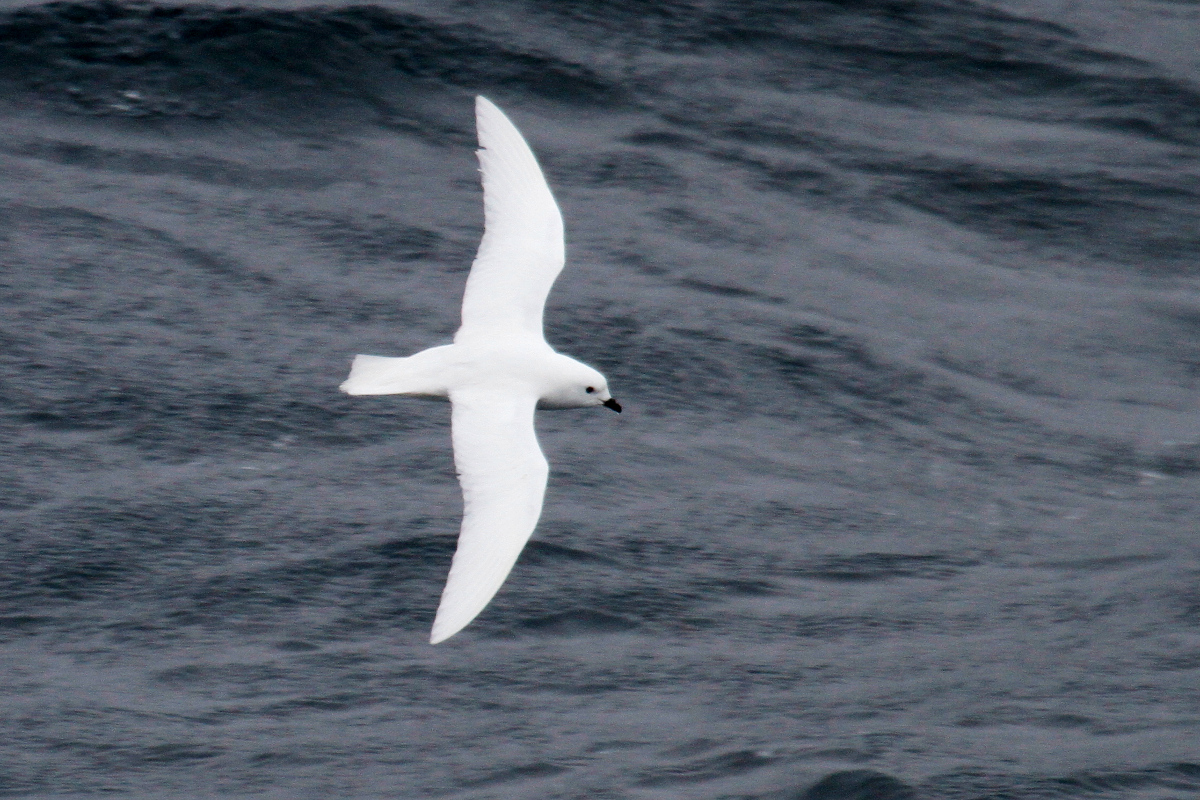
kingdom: Animalia
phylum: Chordata
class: Aves
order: Procellariiformes
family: Procellariidae
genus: Pagodroma
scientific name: Pagodroma nivea
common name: Snow petrel
